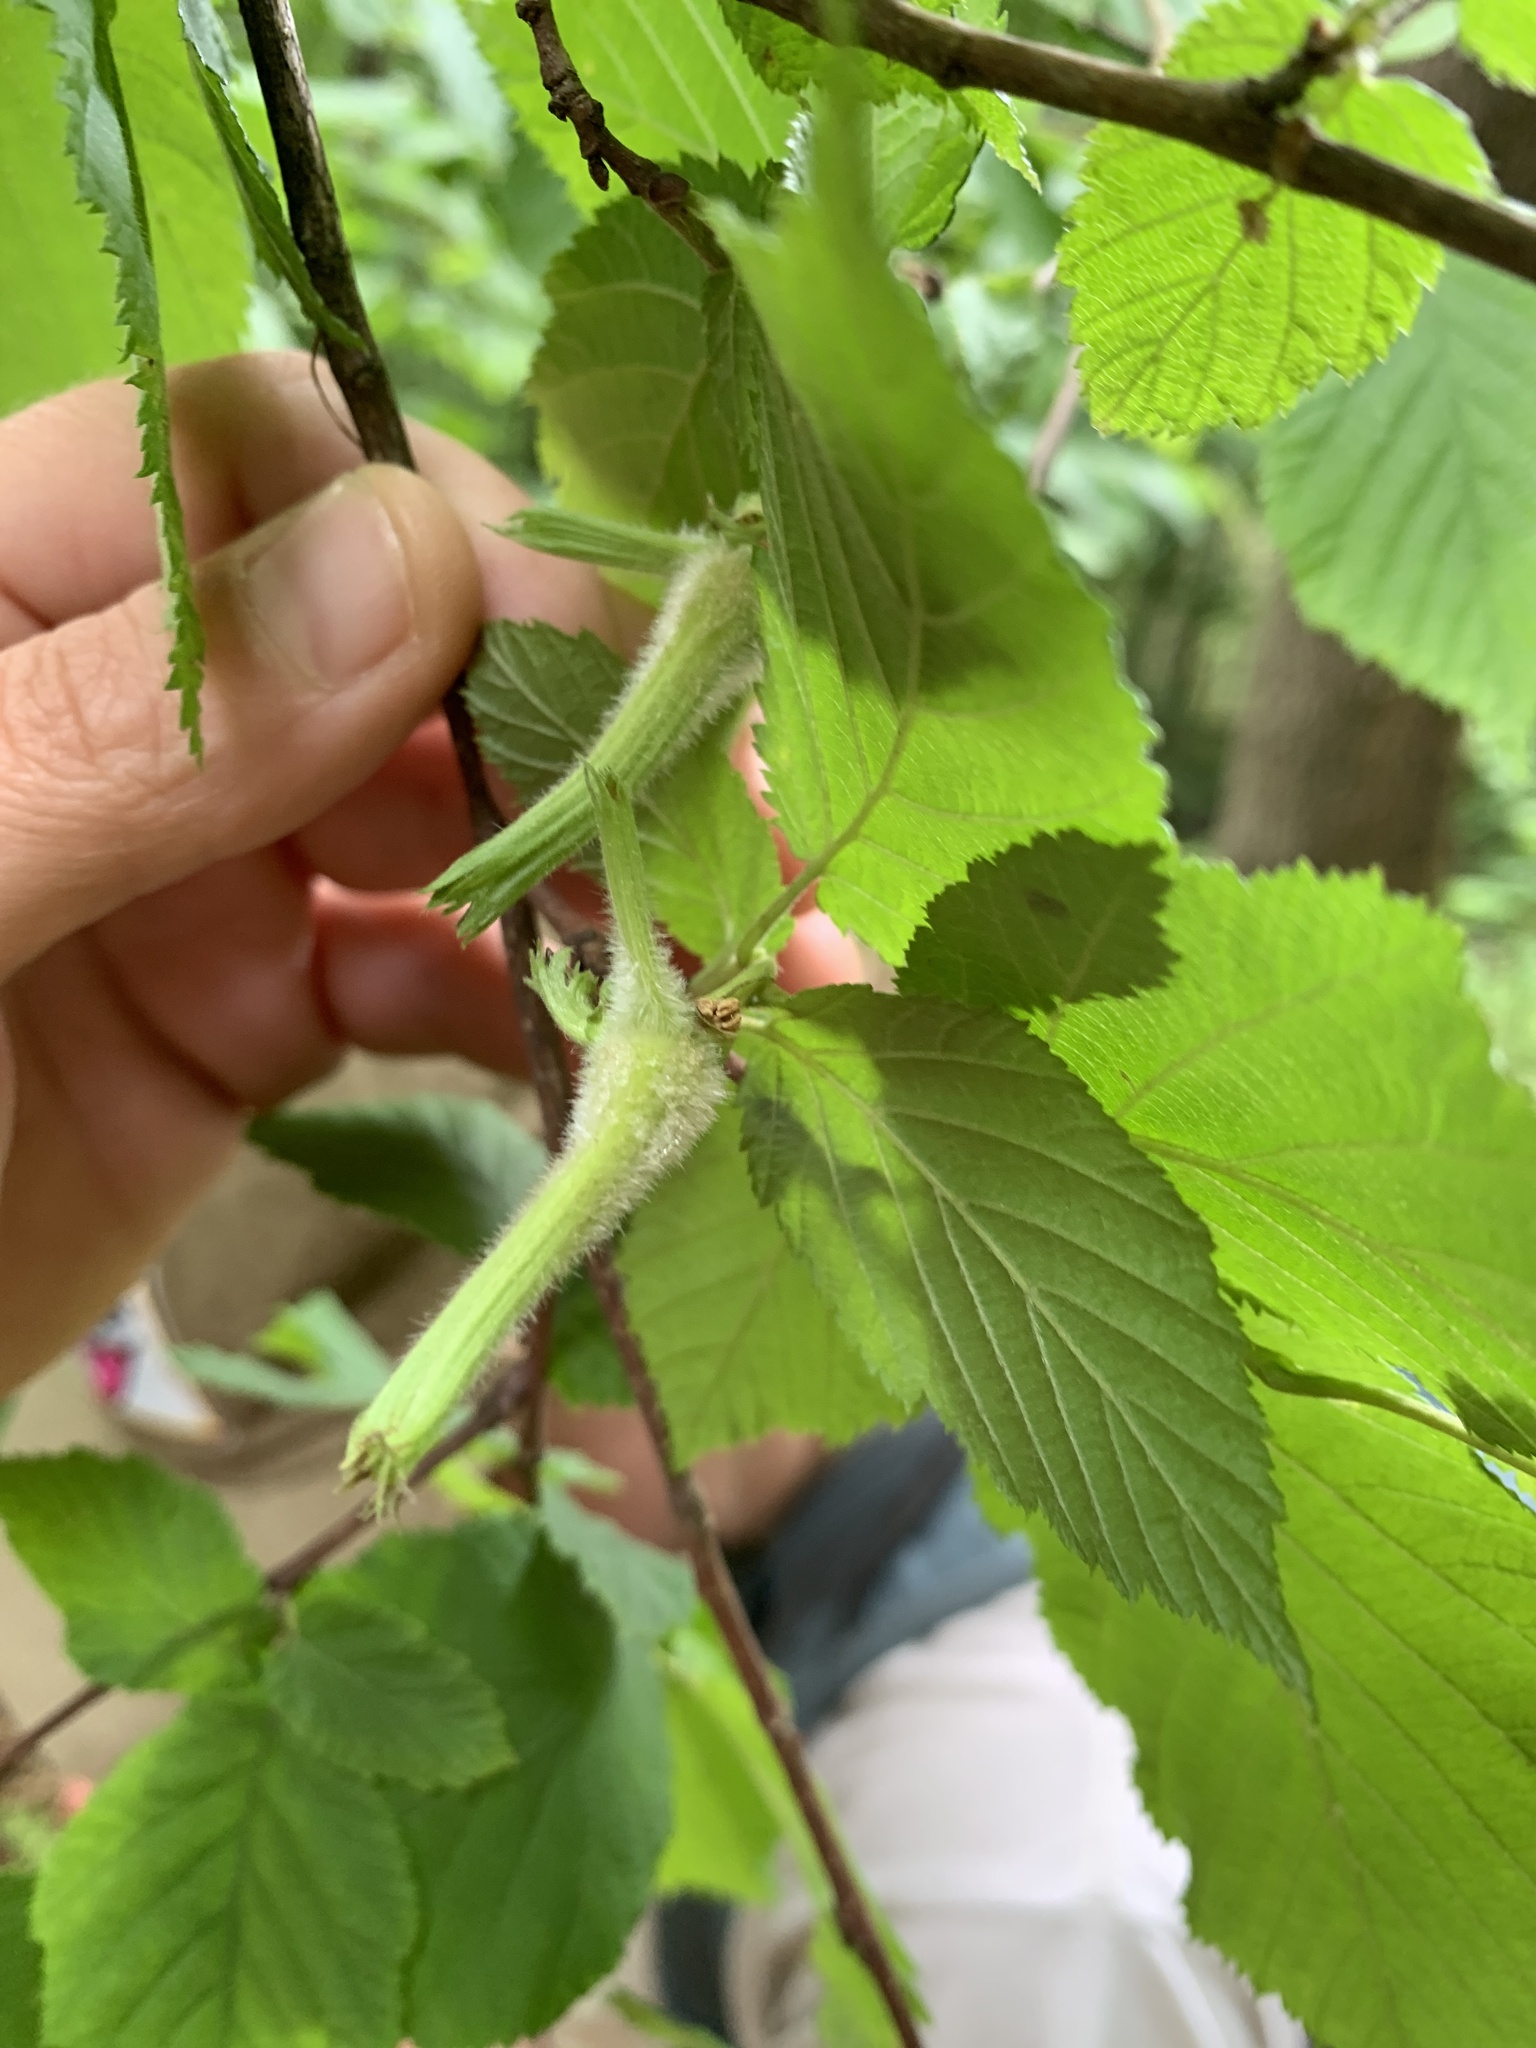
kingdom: Plantae
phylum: Tracheophyta
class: Magnoliopsida
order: Fagales
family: Betulaceae
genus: Corylus
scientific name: Corylus cornuta
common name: Beaked hazel
